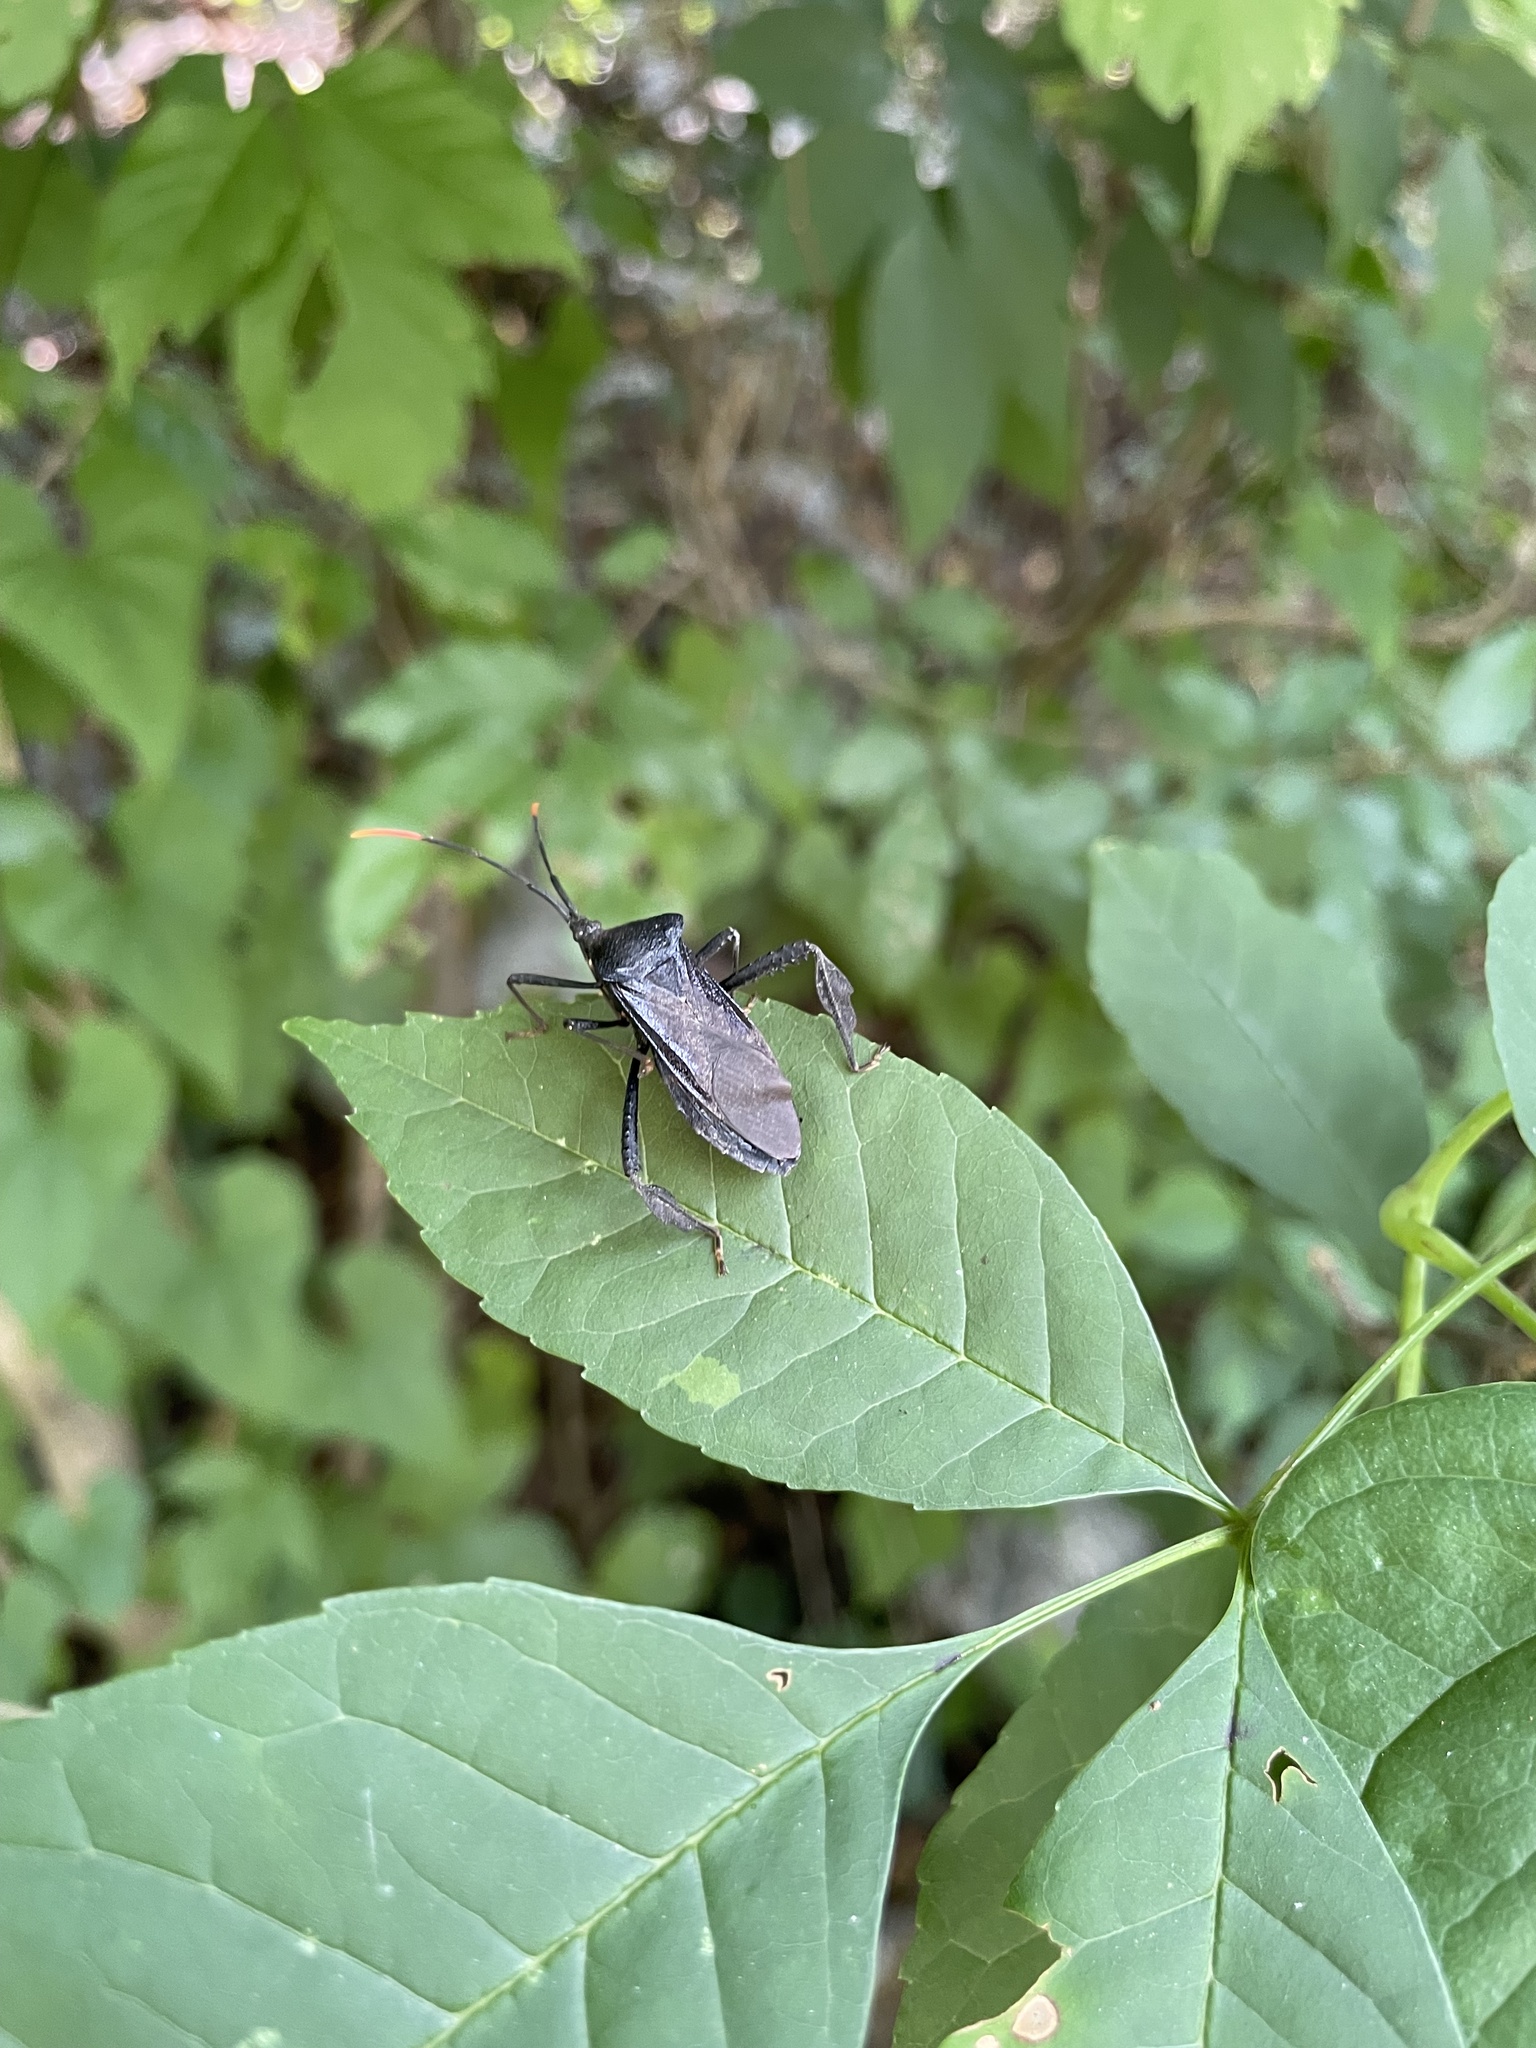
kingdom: Animalia
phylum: Arthropoda
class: Insecta
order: Hemiptera
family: Coreidae
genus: Acanthocephala
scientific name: Acanthocephala terminalis
